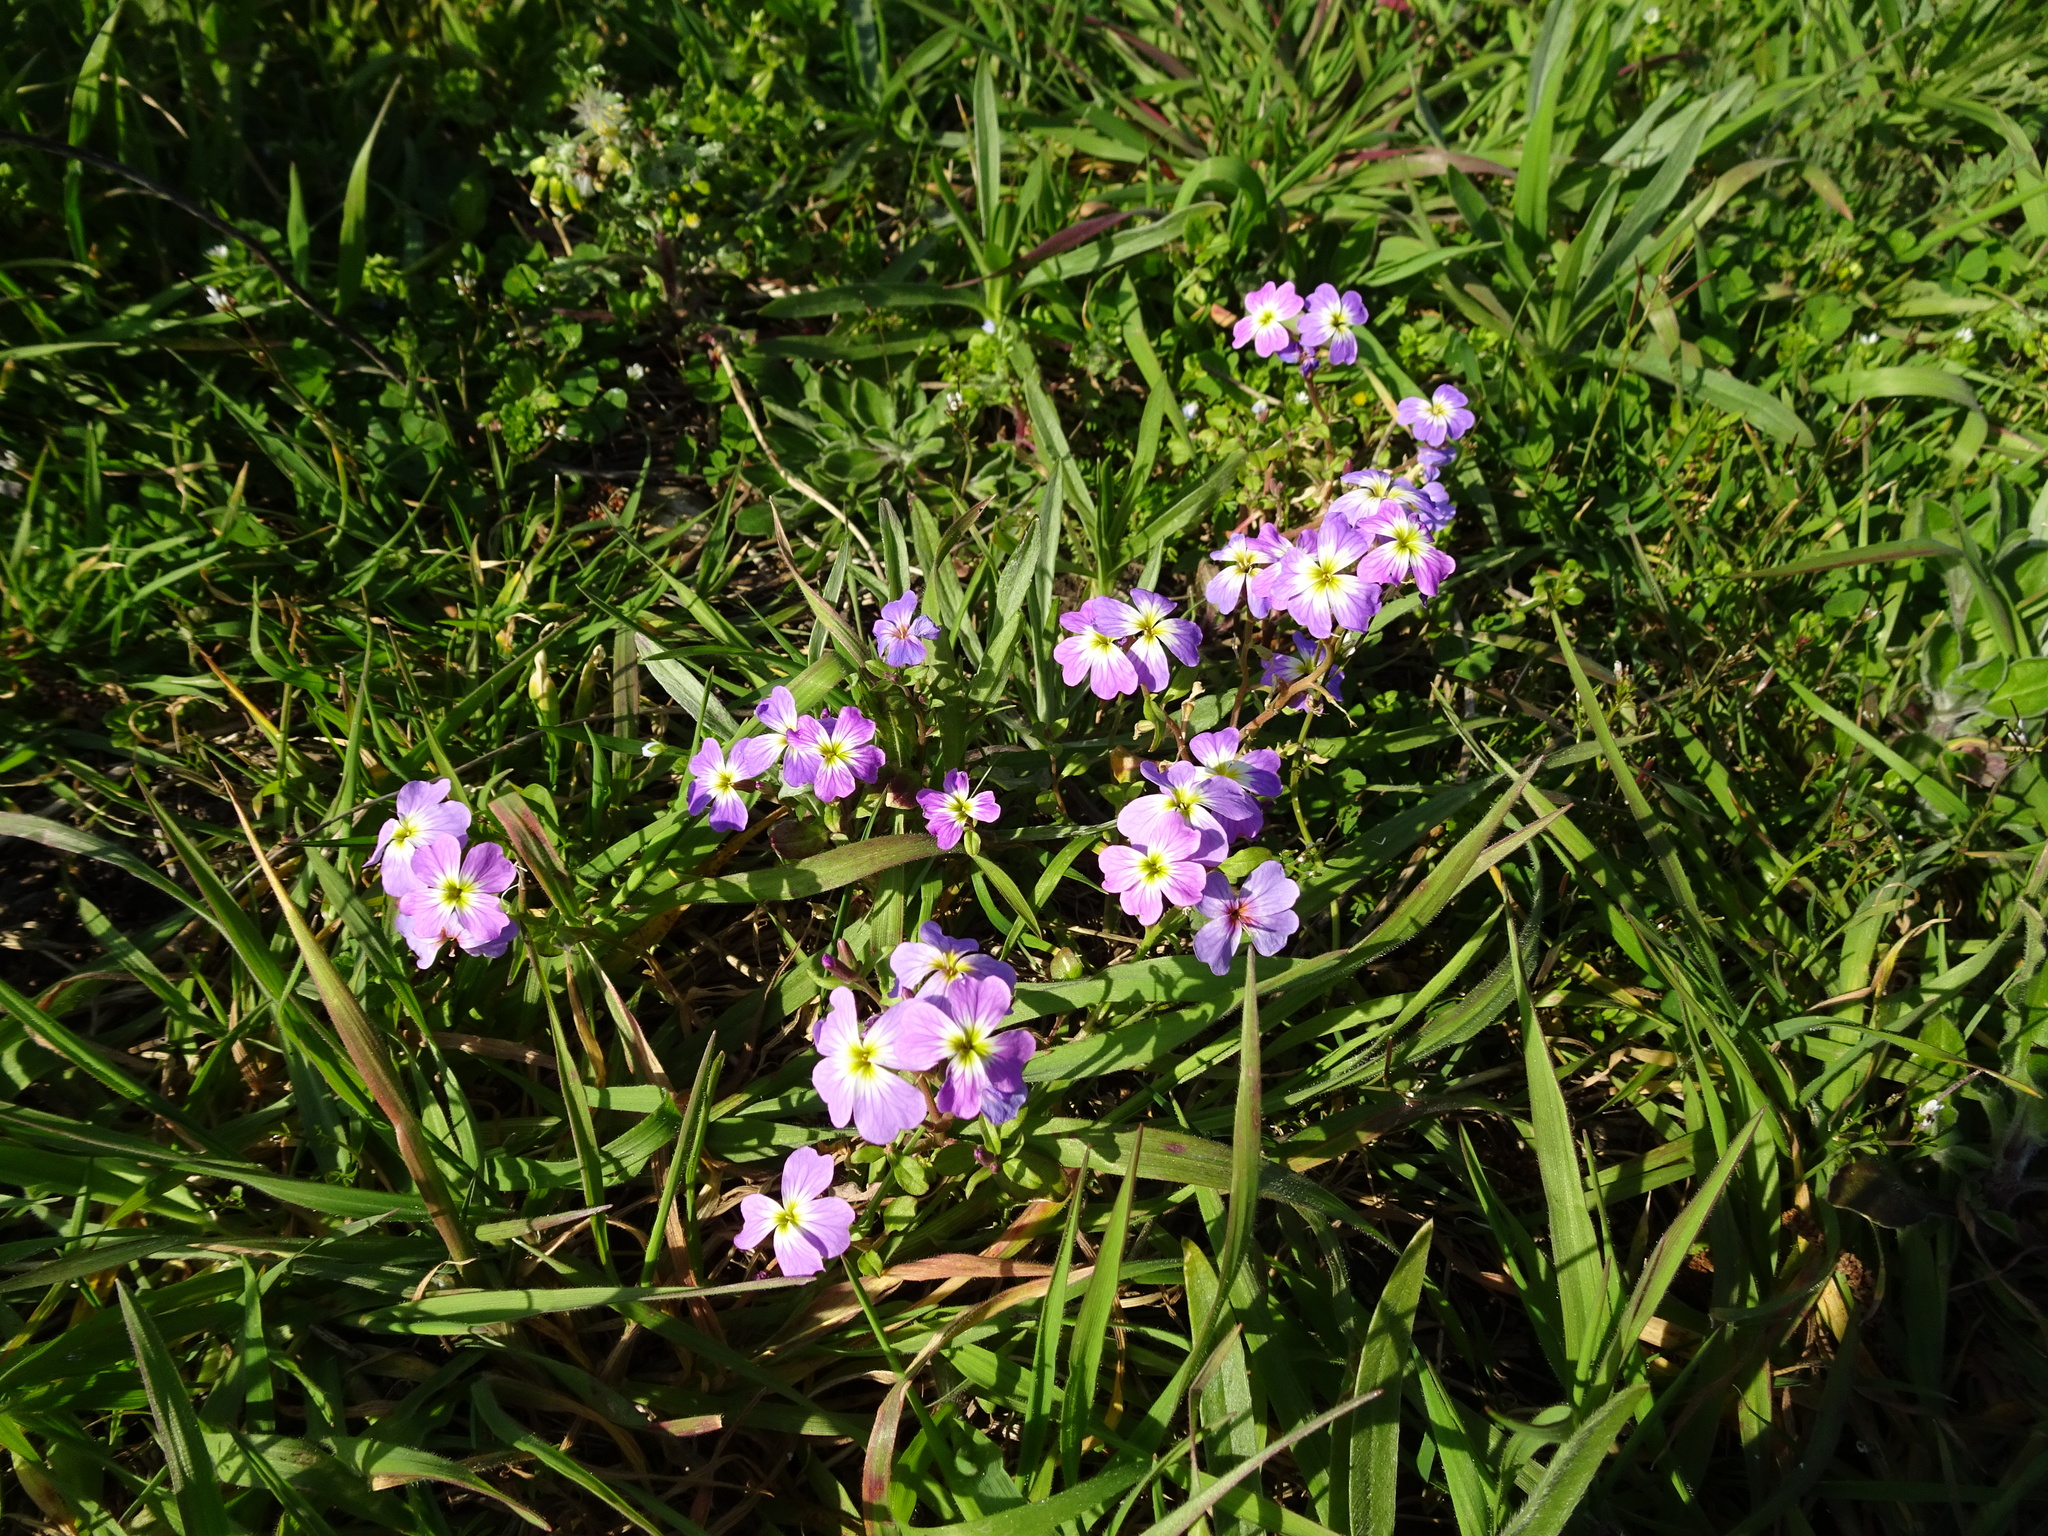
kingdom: Plantae
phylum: Tracheophyta
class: Magnoliopsida
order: Brassicales
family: Brassicaceae
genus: Malcolmia
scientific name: Malcolmia maritima
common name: Virginia stock
